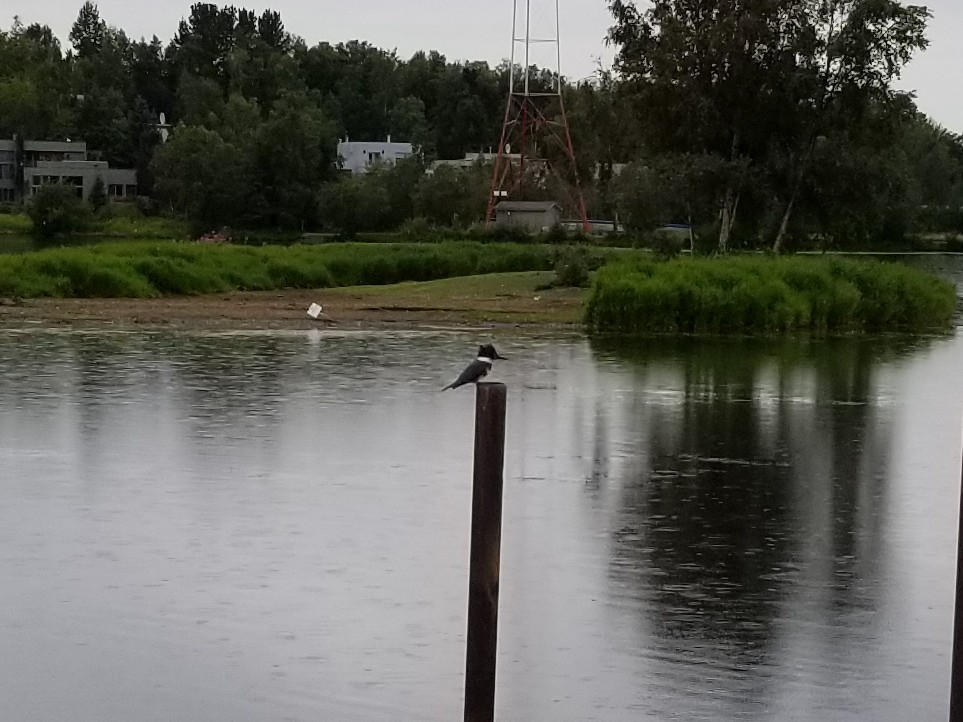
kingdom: Animalia
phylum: Chordata
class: Aves
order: Coraciiformes
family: Alcedinidae
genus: Megaceryle
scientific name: Megaceryle alcyon
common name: Belted kingfisher
